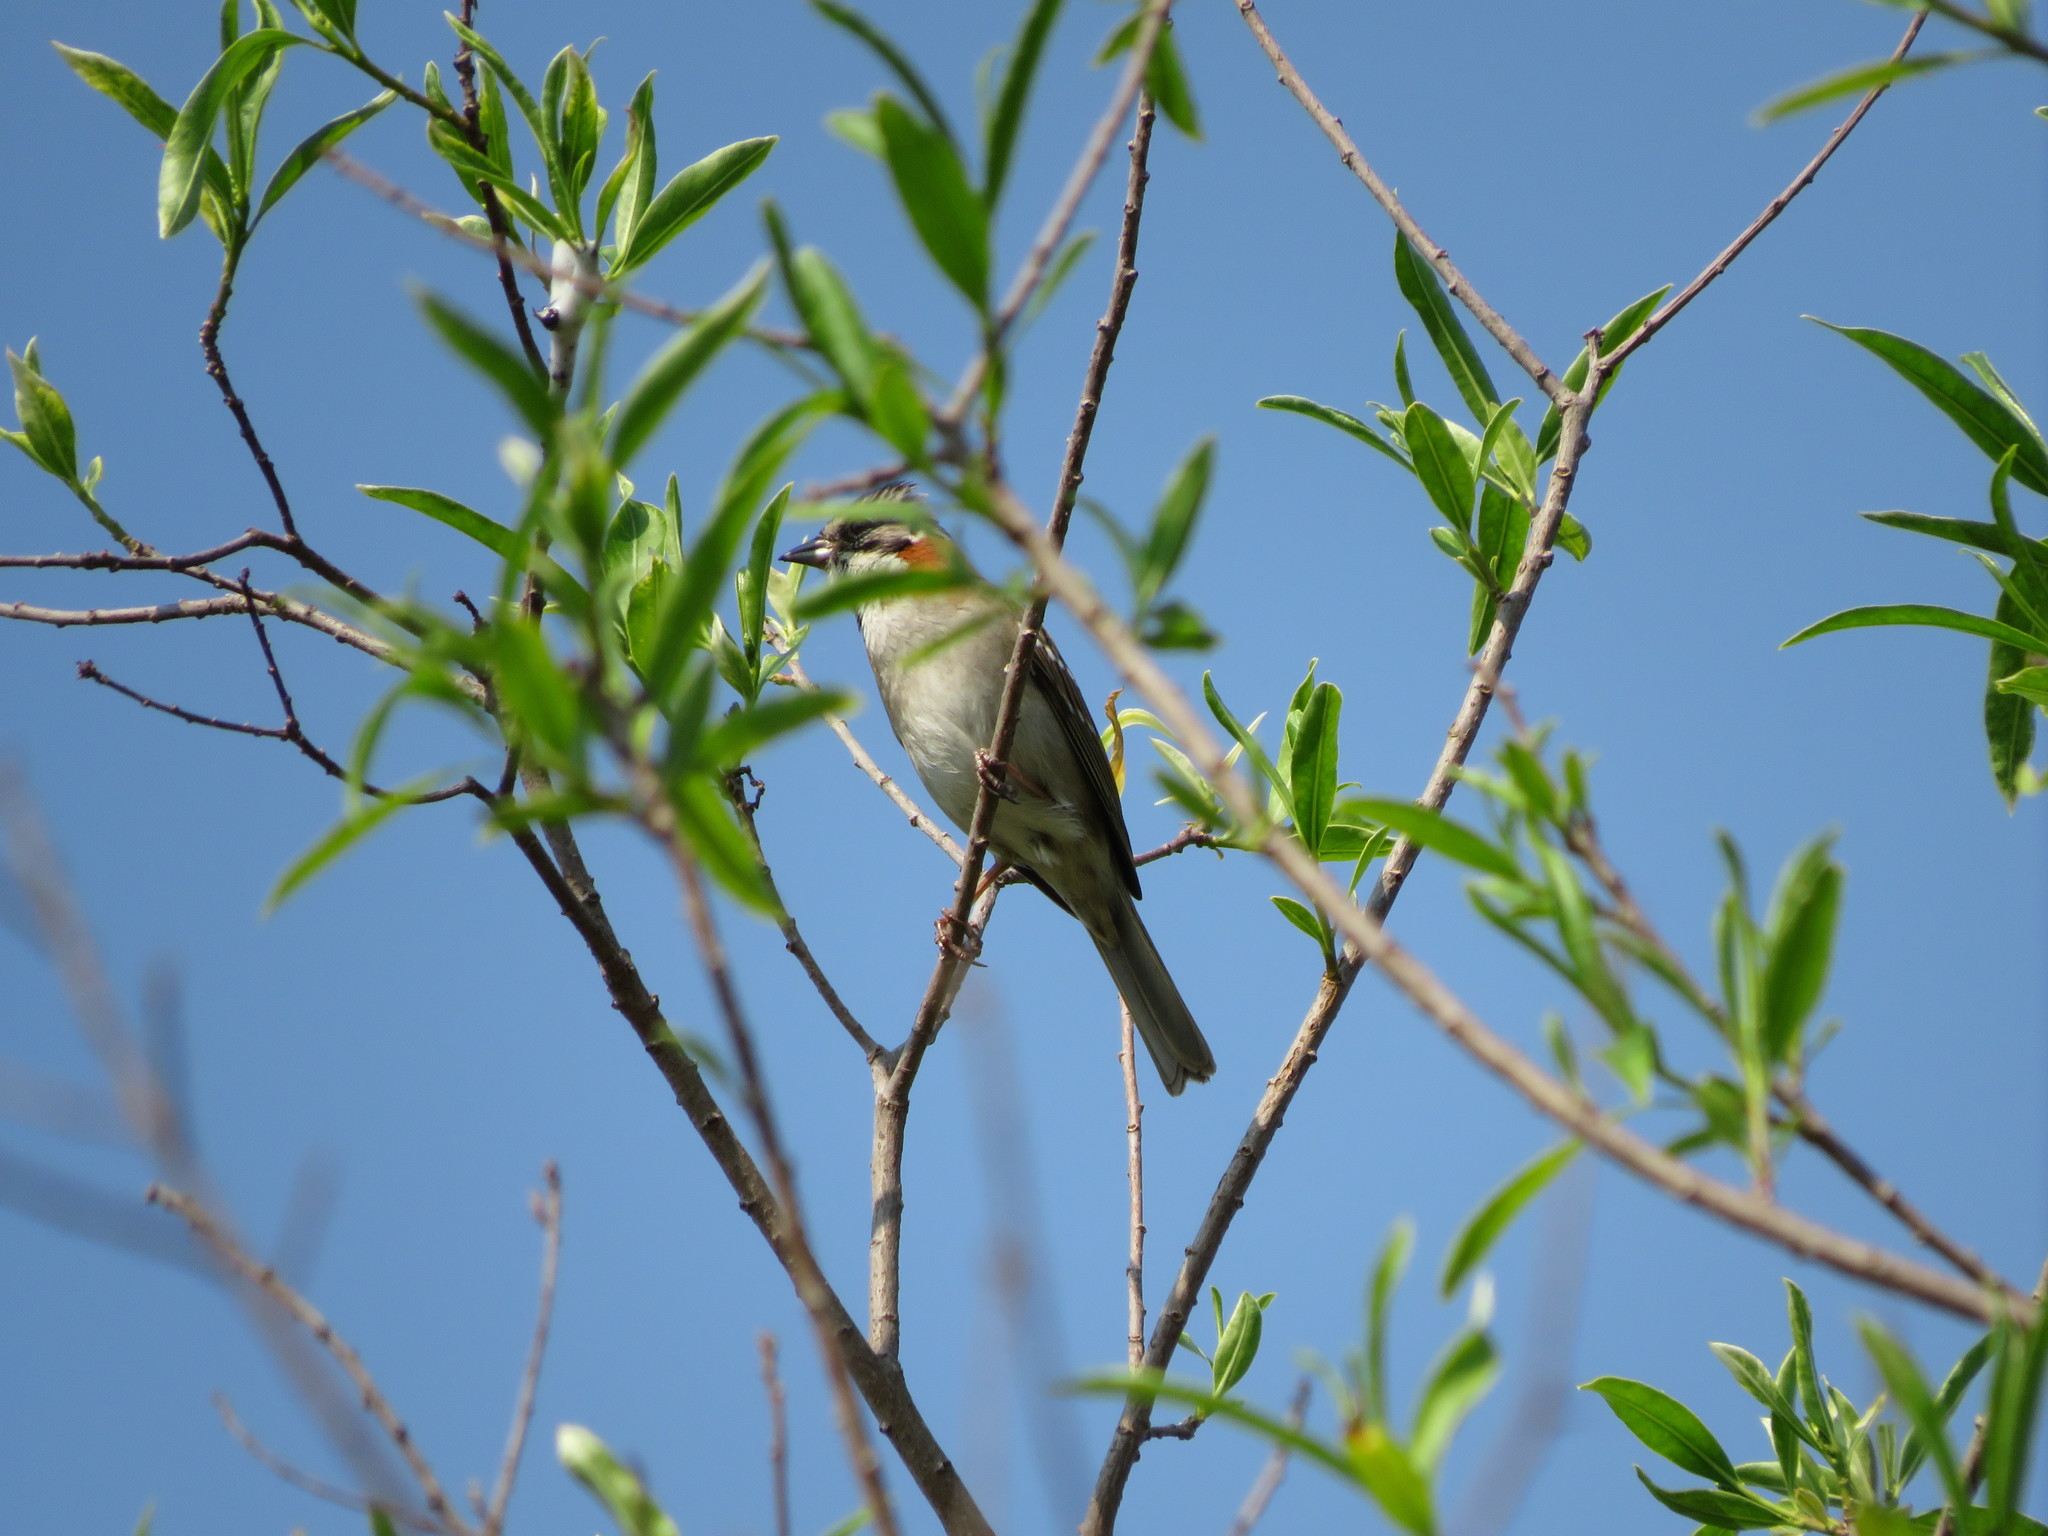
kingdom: Animalia
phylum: Chordata
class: Aves
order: Passeriformes
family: Passerellidae
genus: Zonotrichia
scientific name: Zonotrichia capensis
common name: Rufous-collared sparrow
